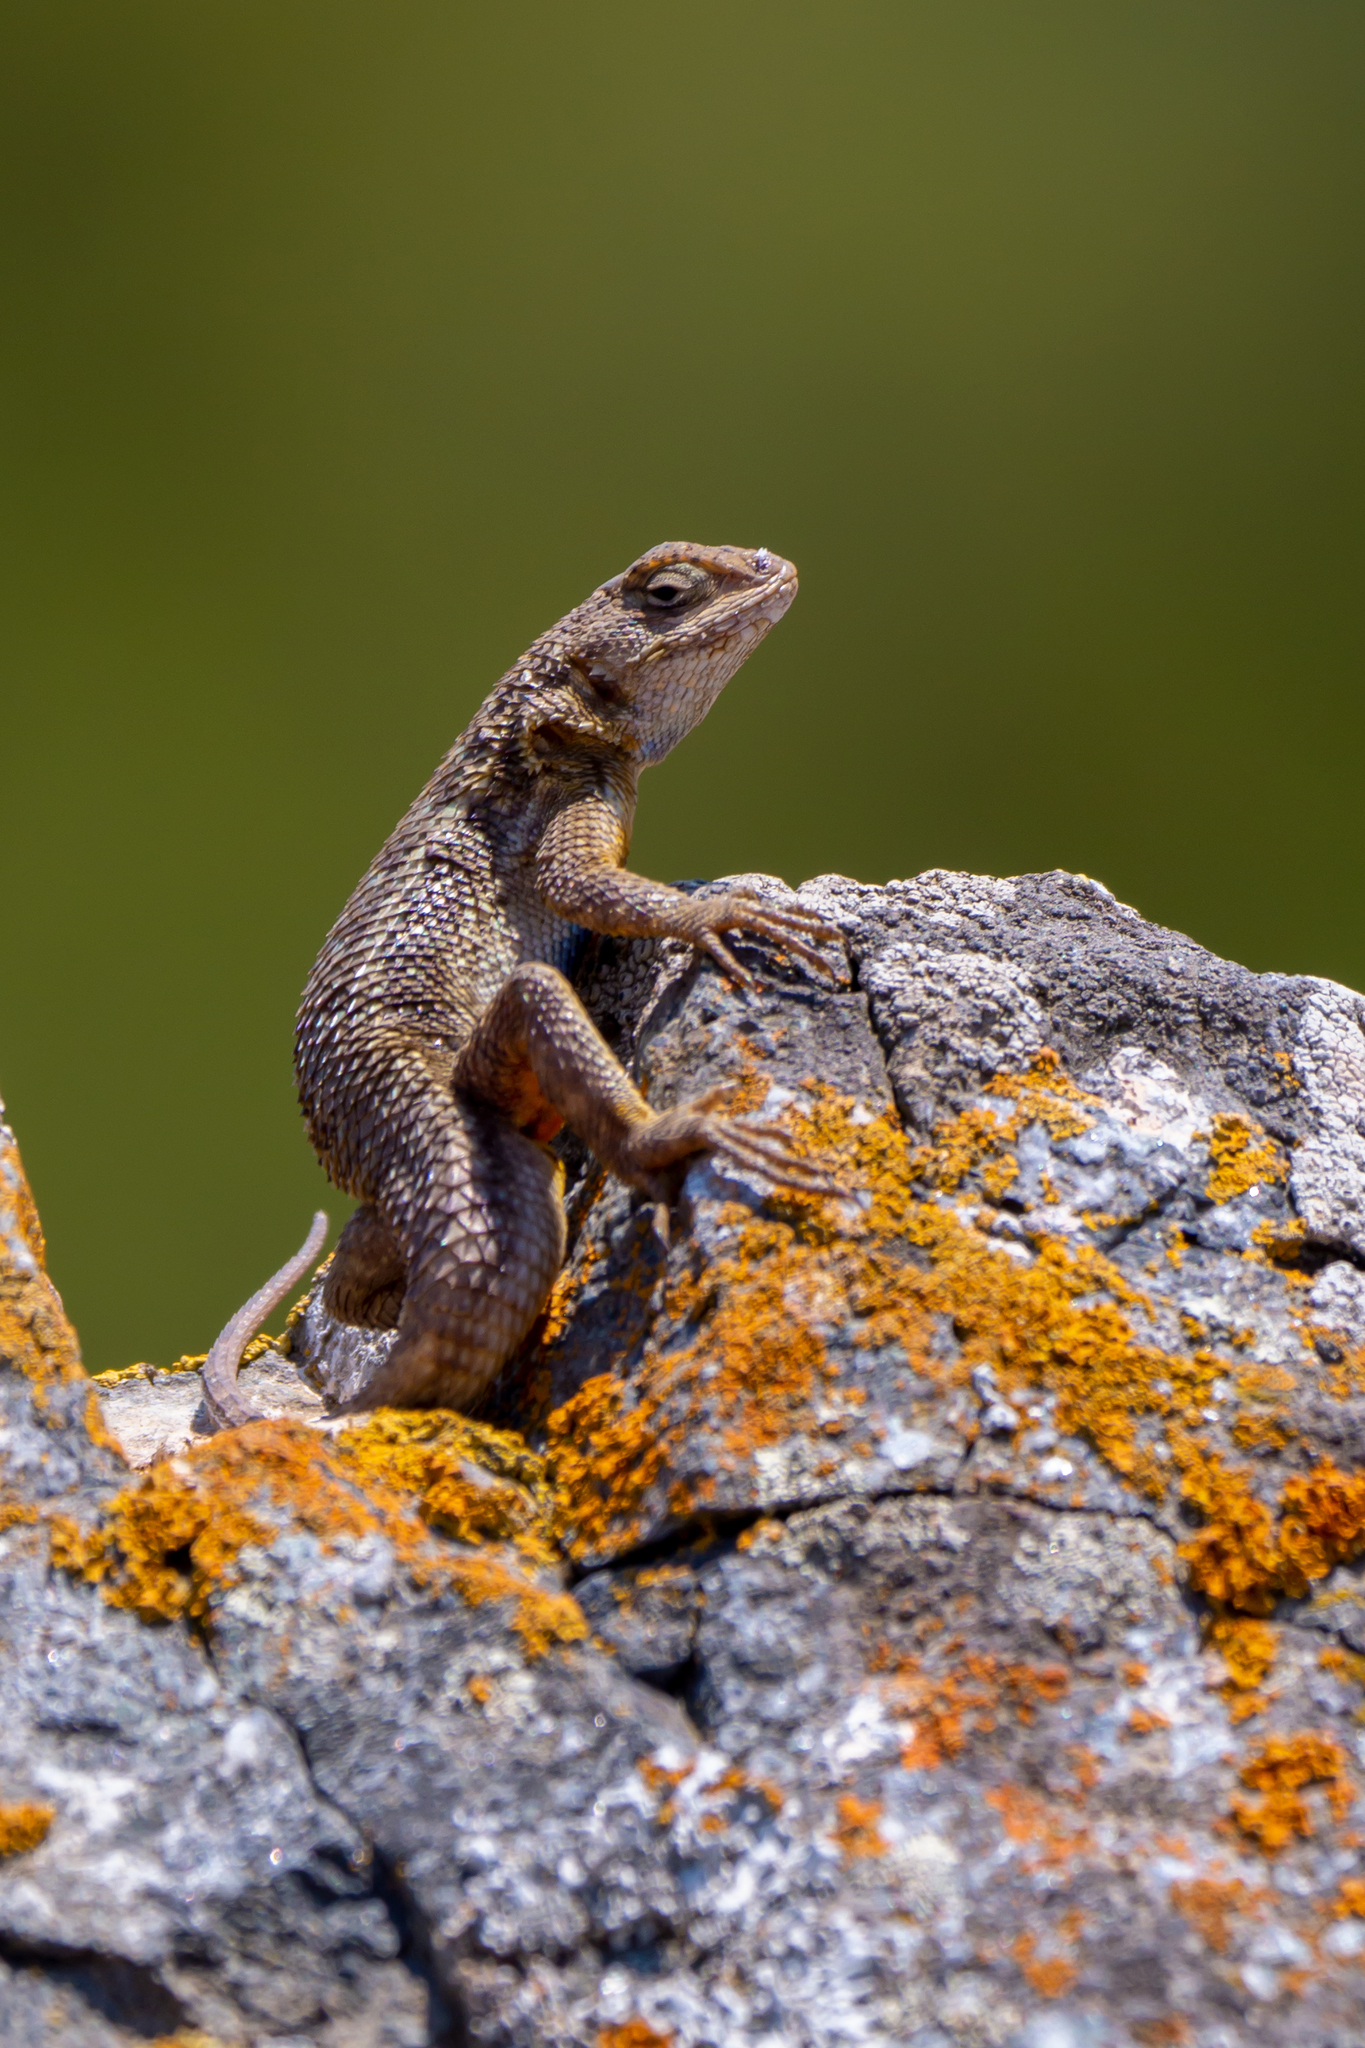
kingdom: Animalia
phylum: Chordata
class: Squamata
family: Phrynosomatidae
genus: Sceloporus
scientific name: Sceloporus occidentalis
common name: Western fence lizard
